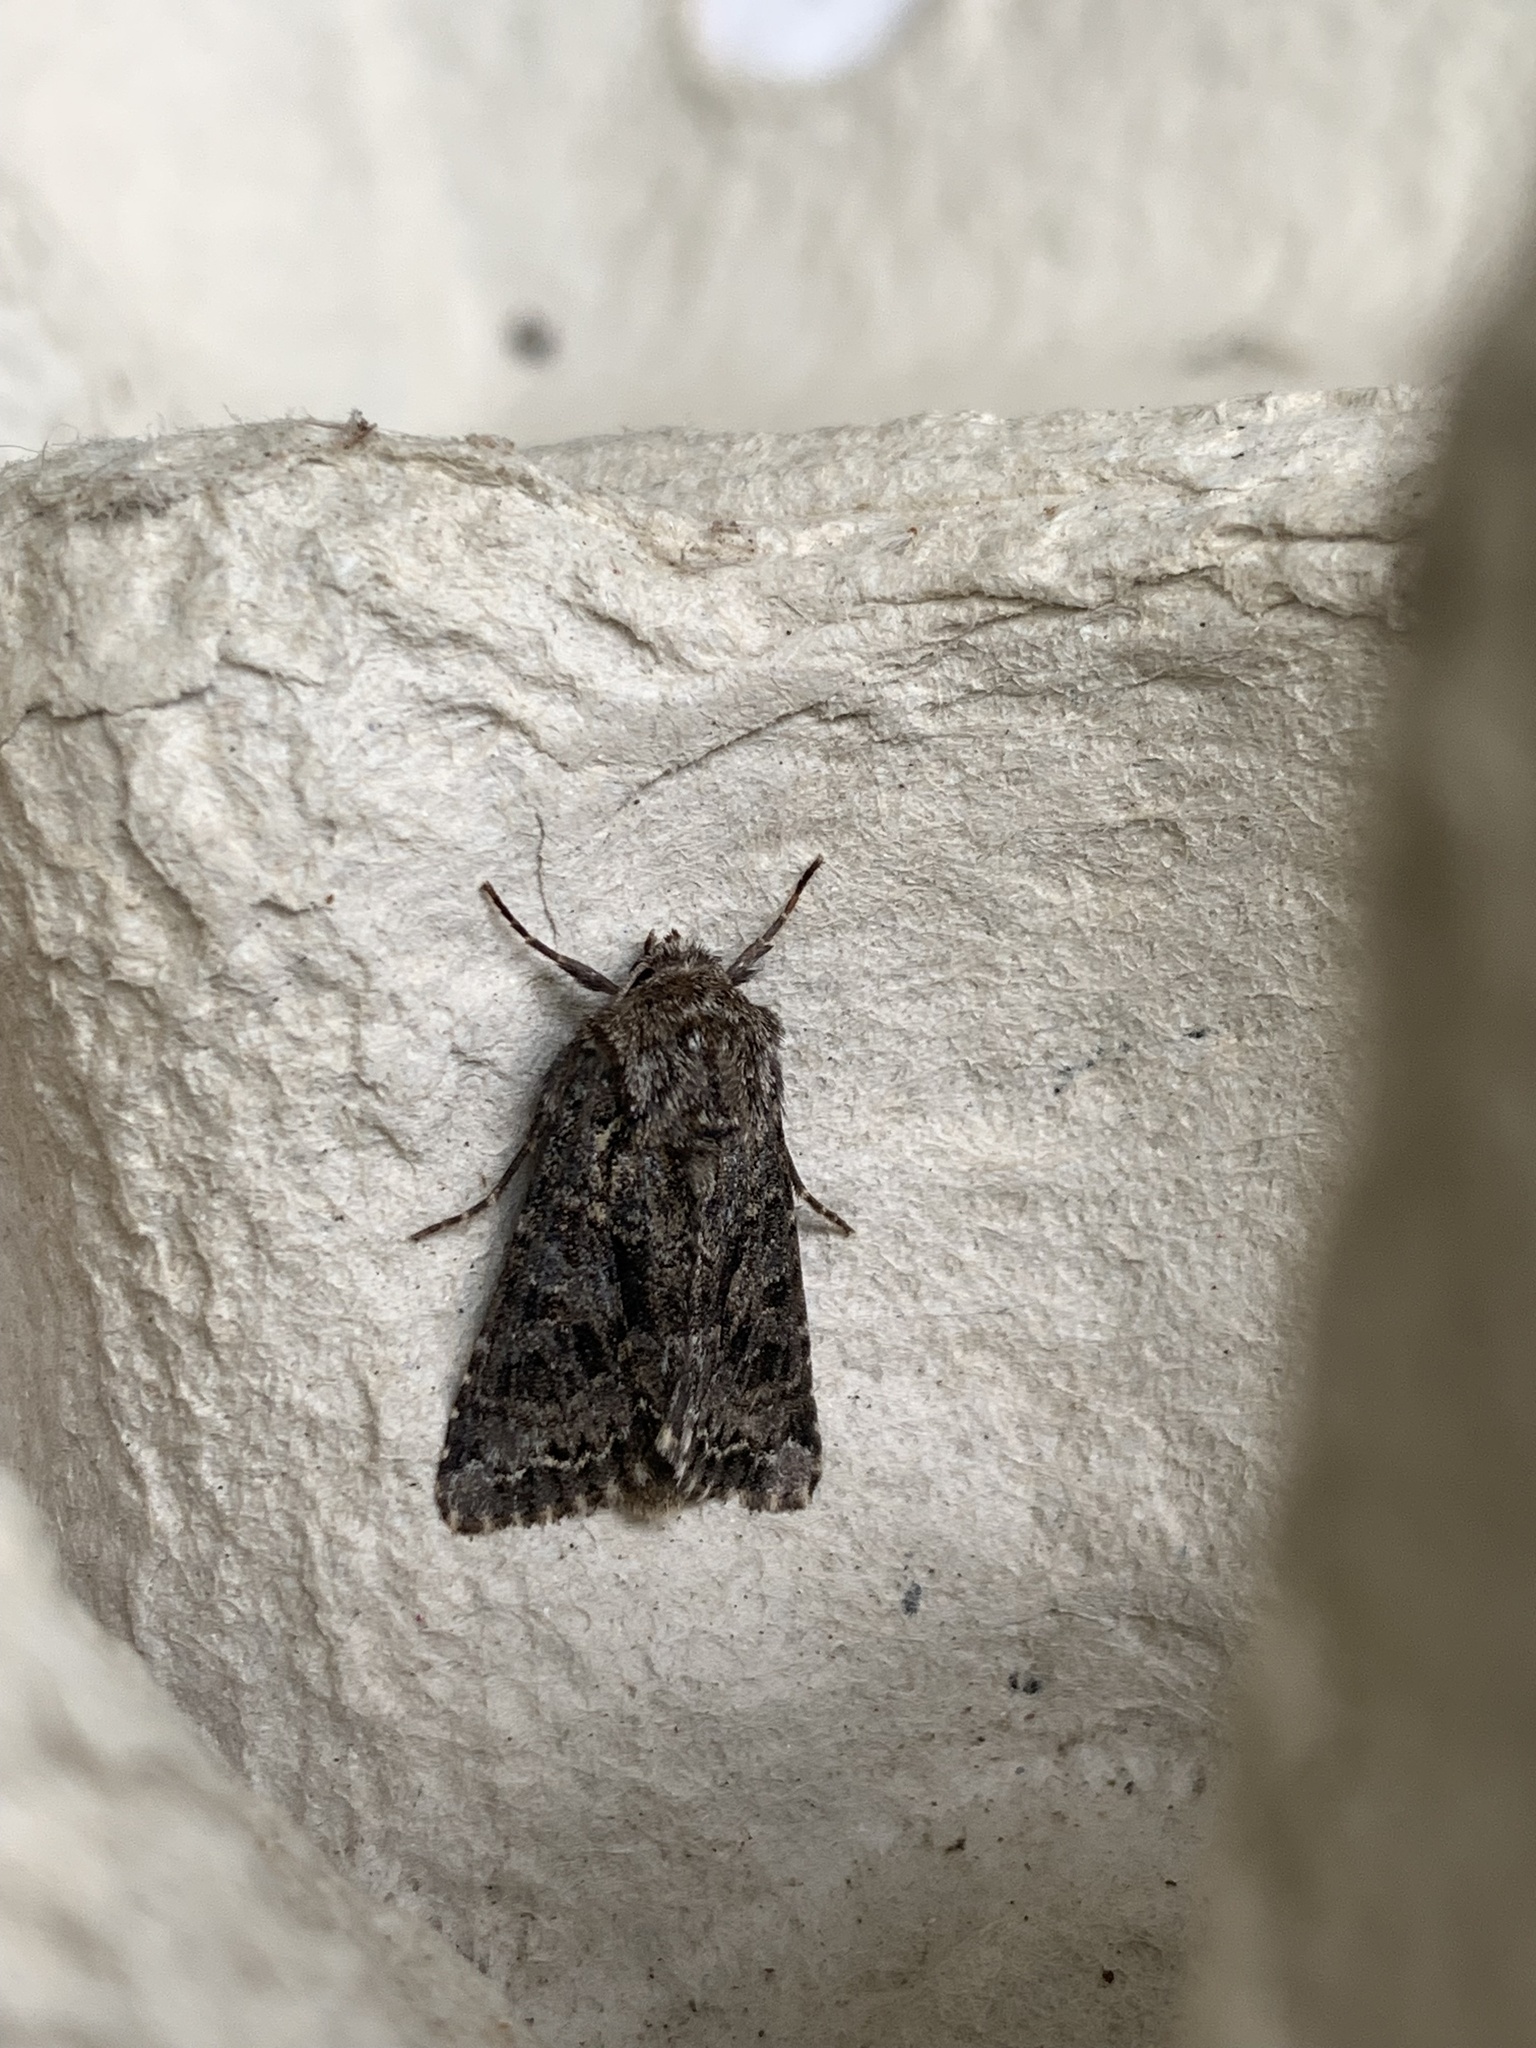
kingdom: Animalia
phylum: Arthropoda
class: Insecta
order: Lepidoptera
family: Noctuidae
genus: Hada
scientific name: Hada plebeja
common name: Shears
